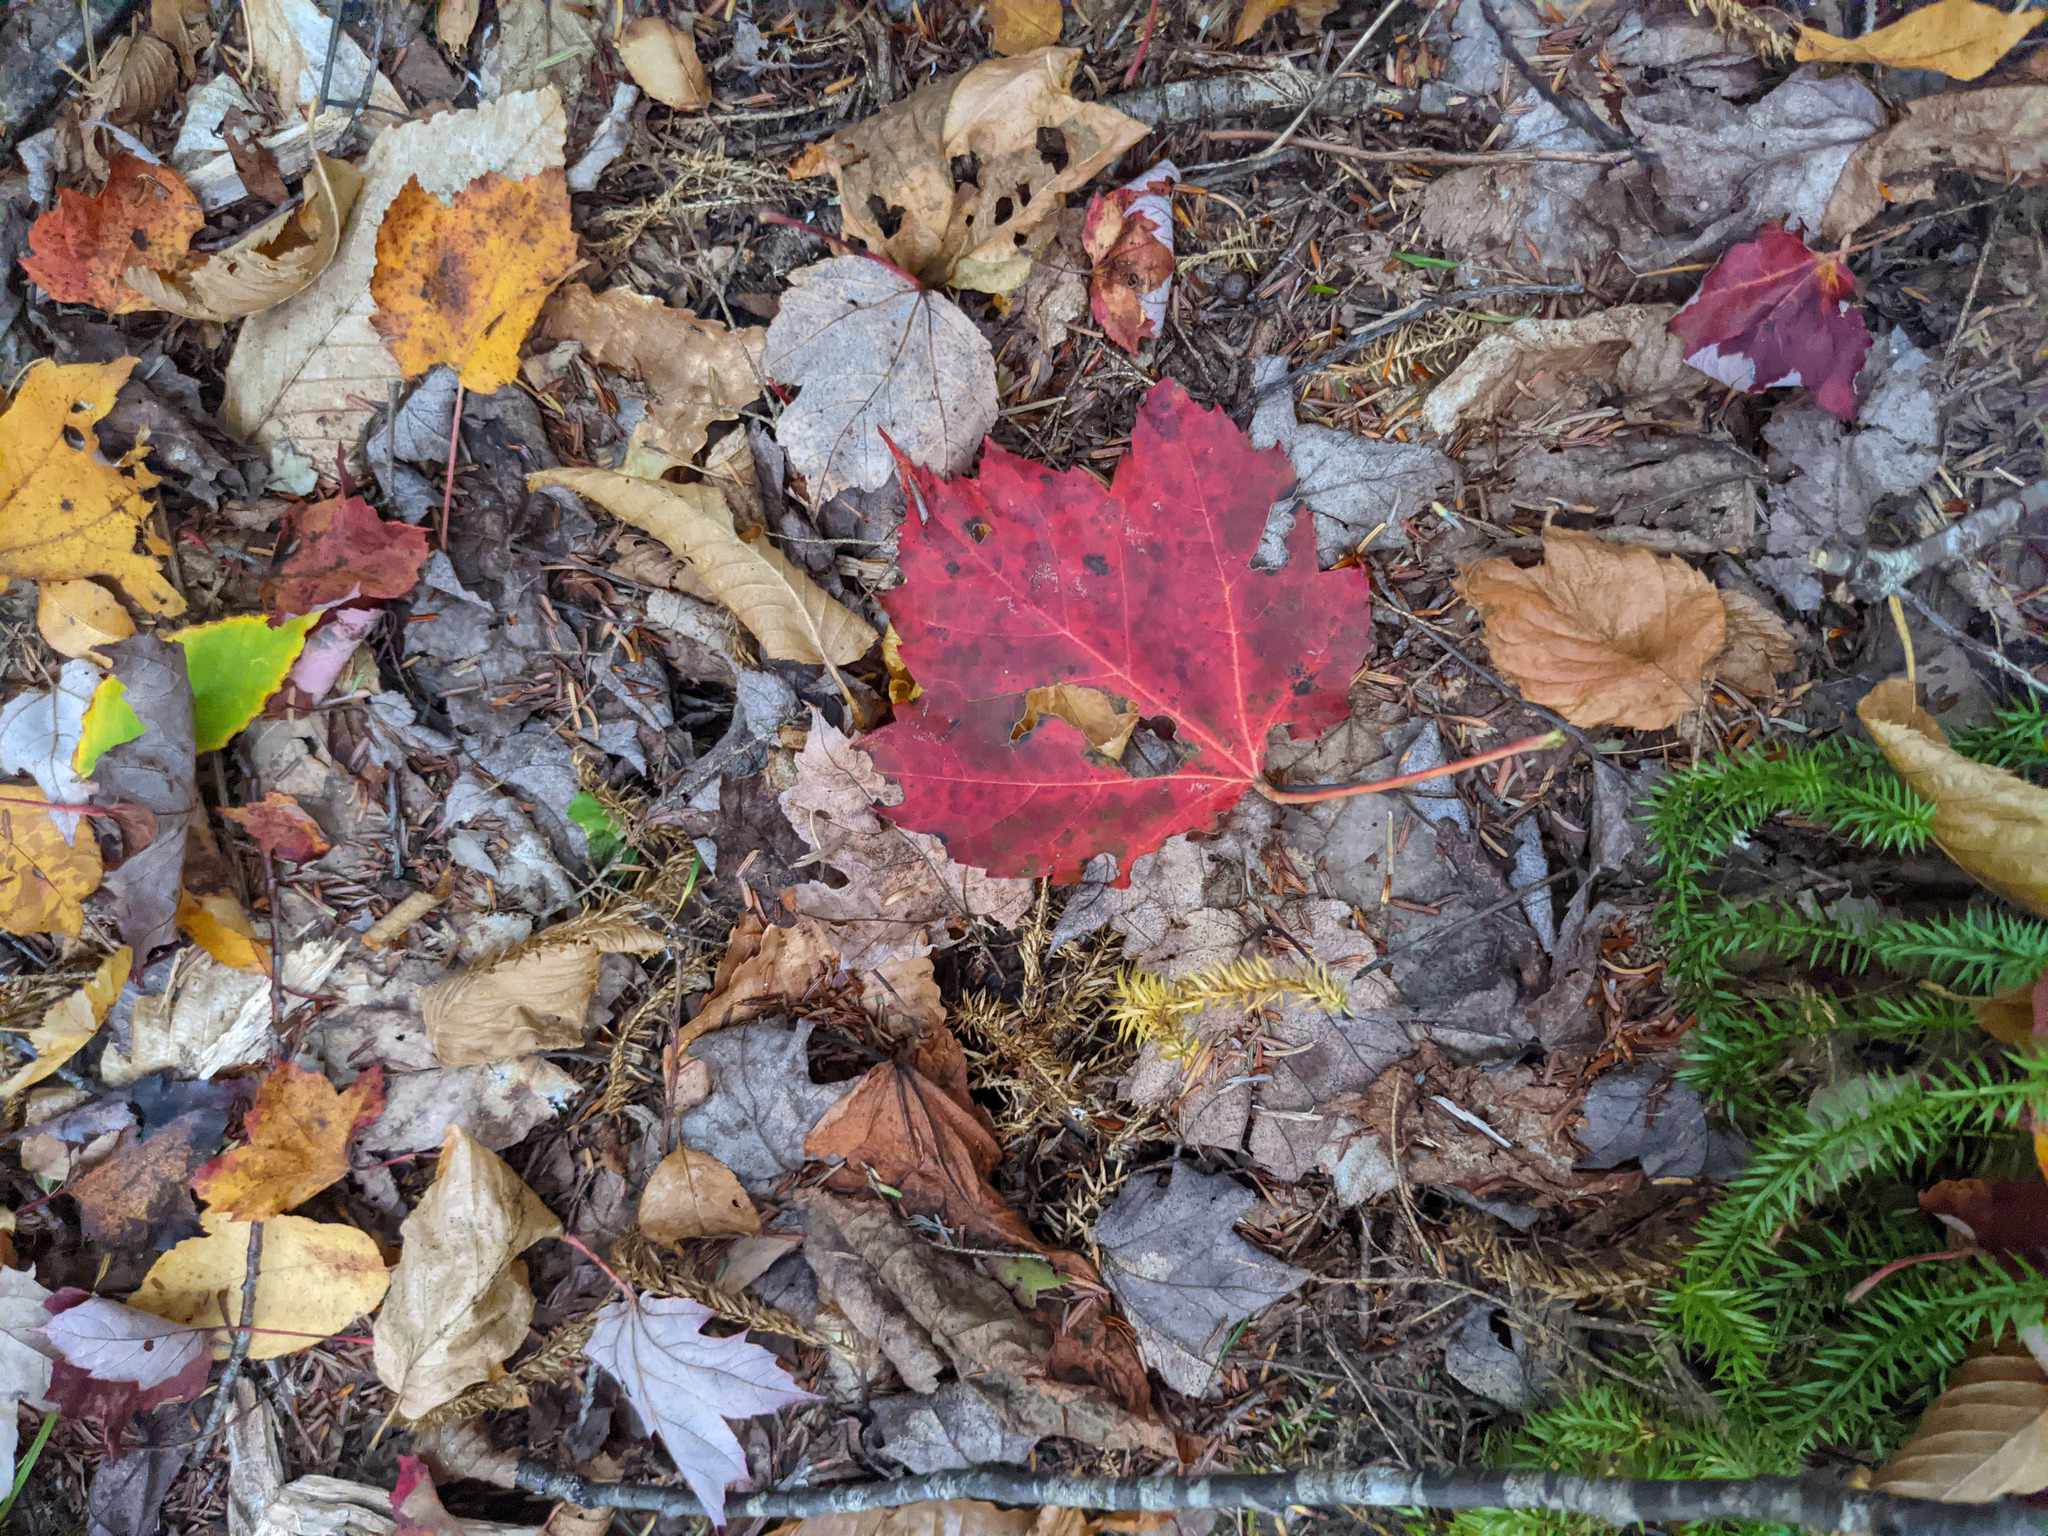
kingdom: Plantae
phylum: Tracheophyta
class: Magnoliopsida
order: Sapindales
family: Sapindaceae
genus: Acer
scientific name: Acer rubrum
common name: Red maple
